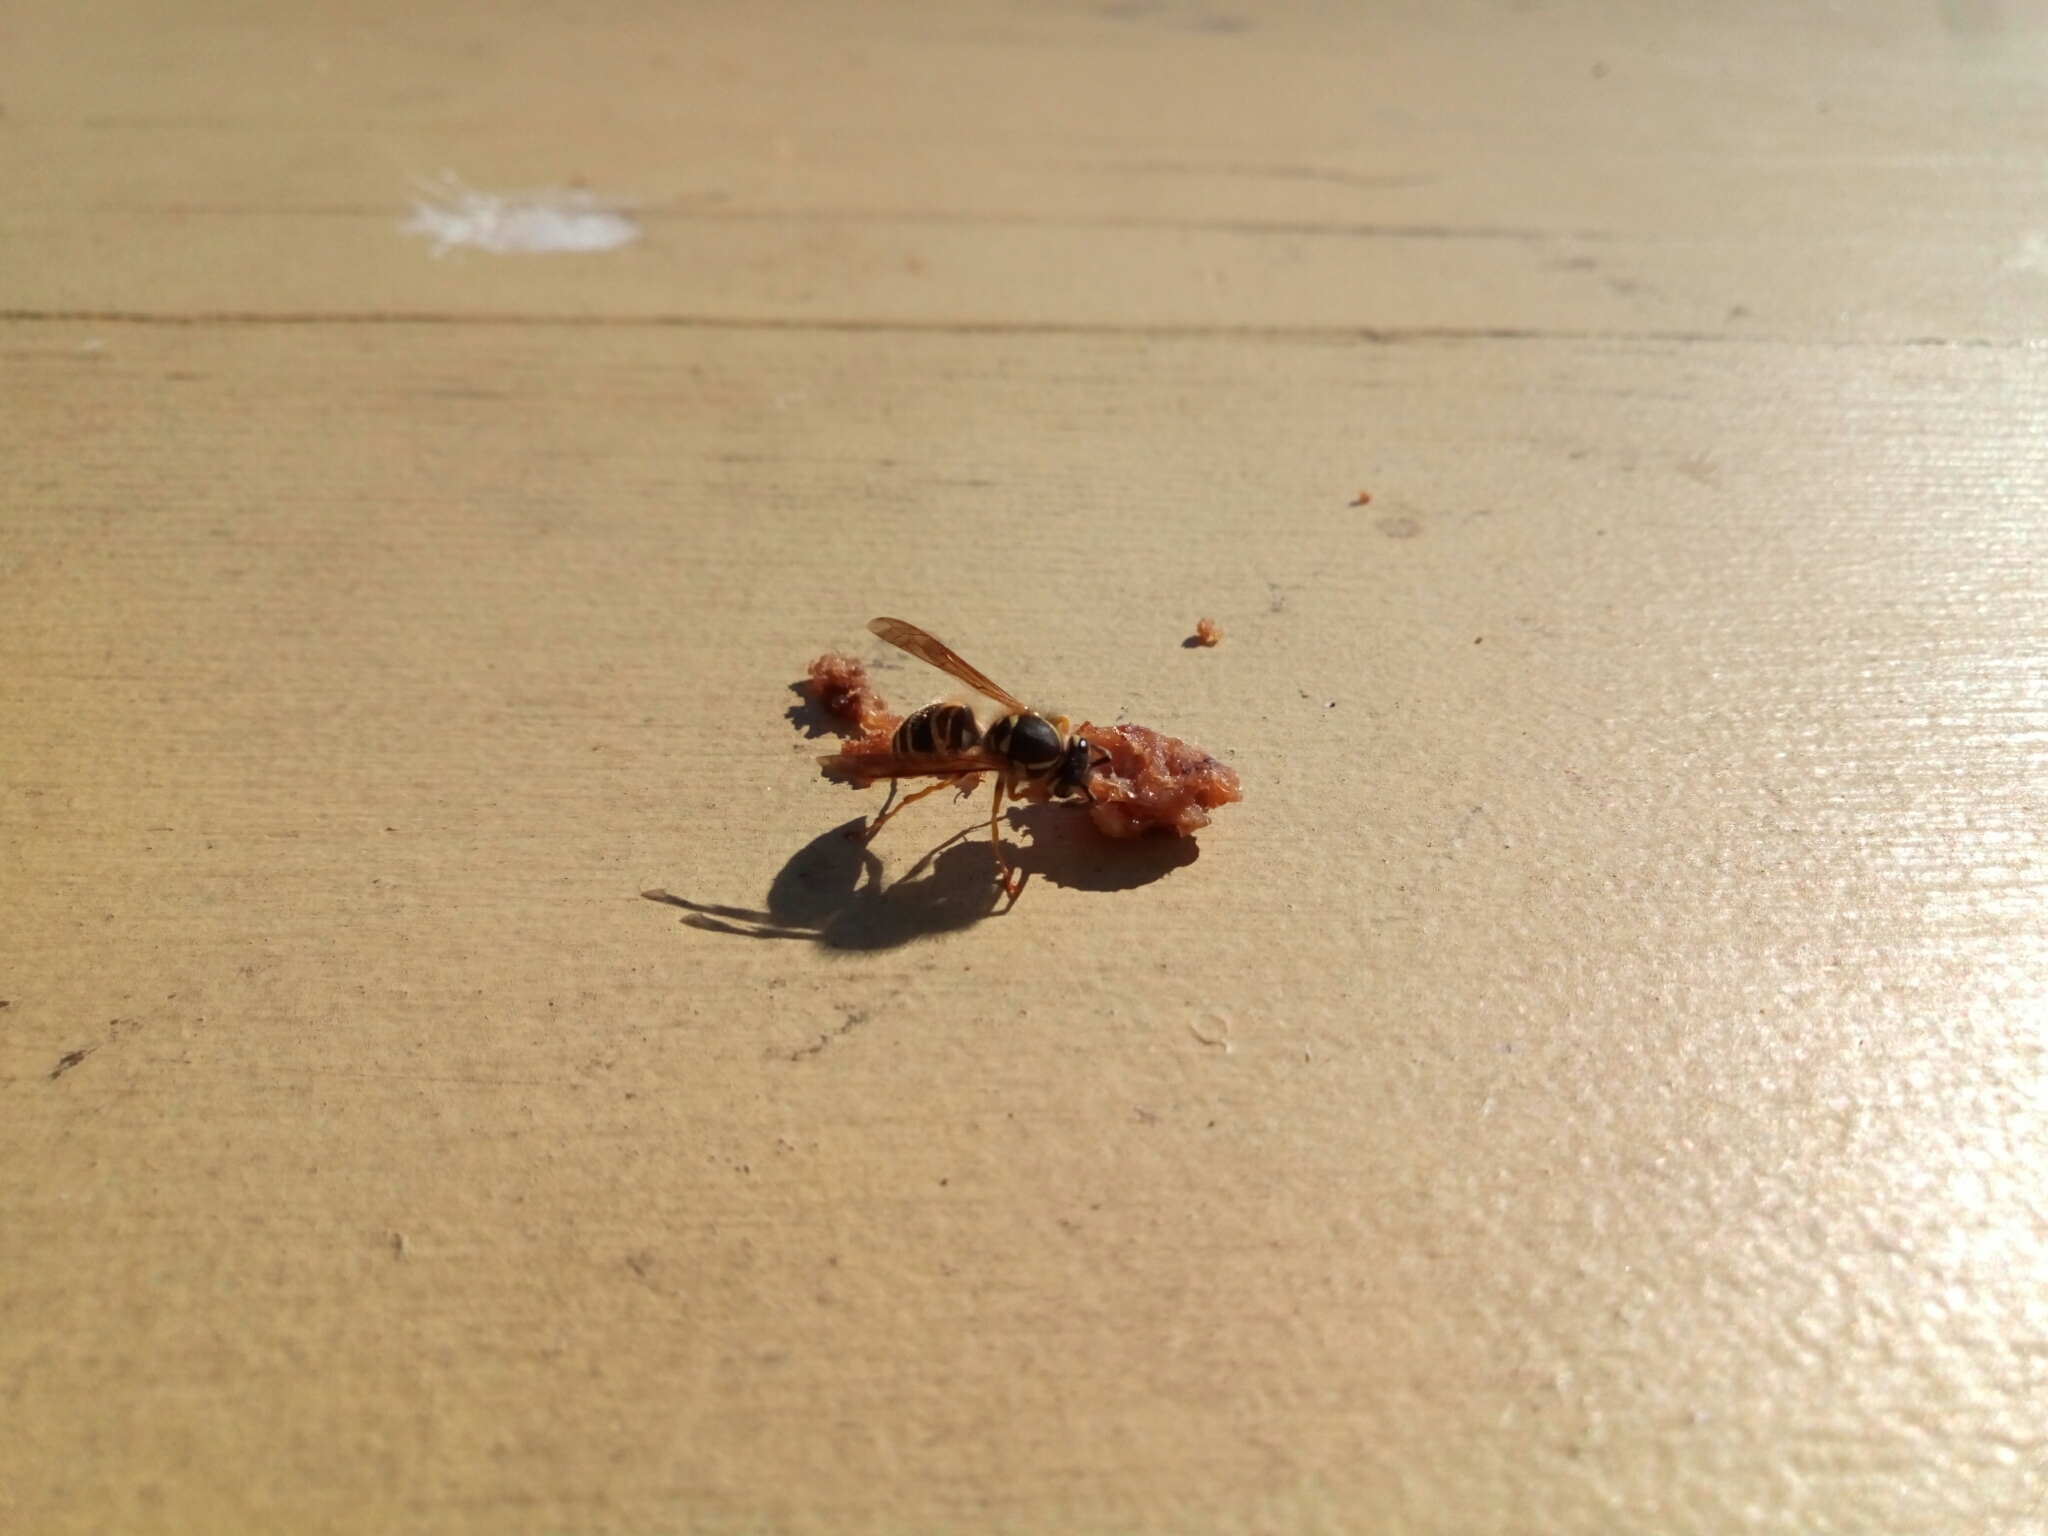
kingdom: Animalia
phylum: Arthropoda
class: Insecta
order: Hymenoptera
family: Vespidae
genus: Vespula
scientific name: Vespula maculifrons
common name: Eastern yellowjacket
